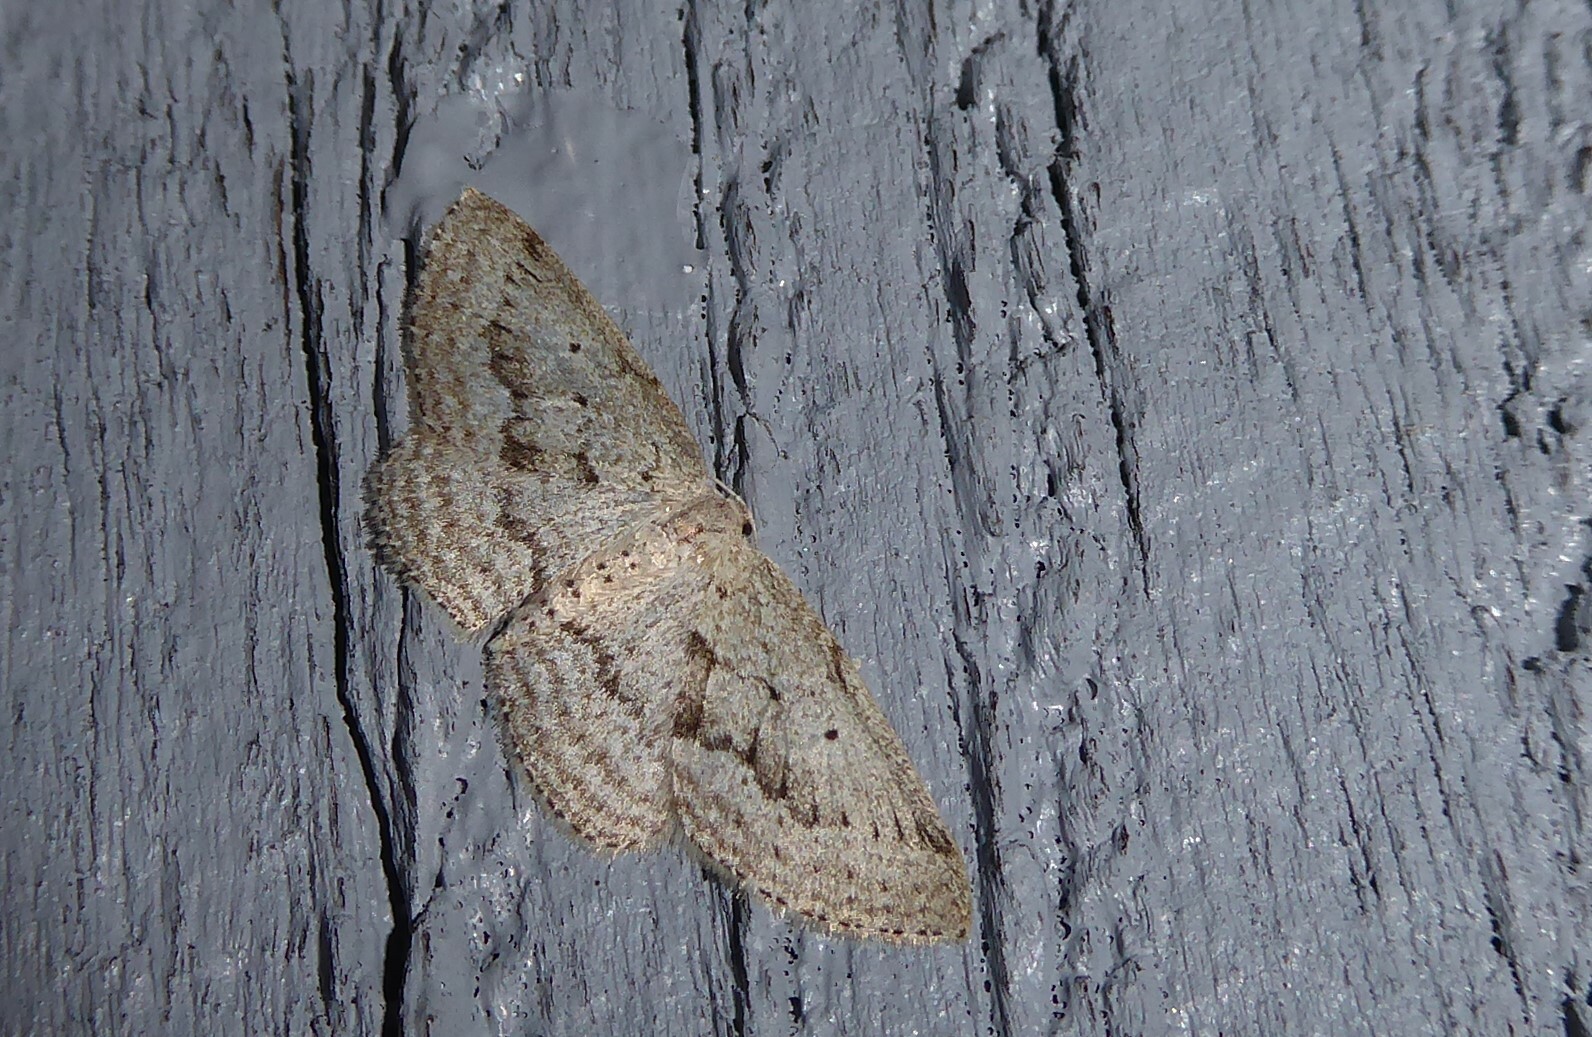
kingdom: Animalia
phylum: Arthropoda
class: Insecta
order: Lepidoptera
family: Geometridae
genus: Poecilasthena
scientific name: Poecilasthena schistaria
